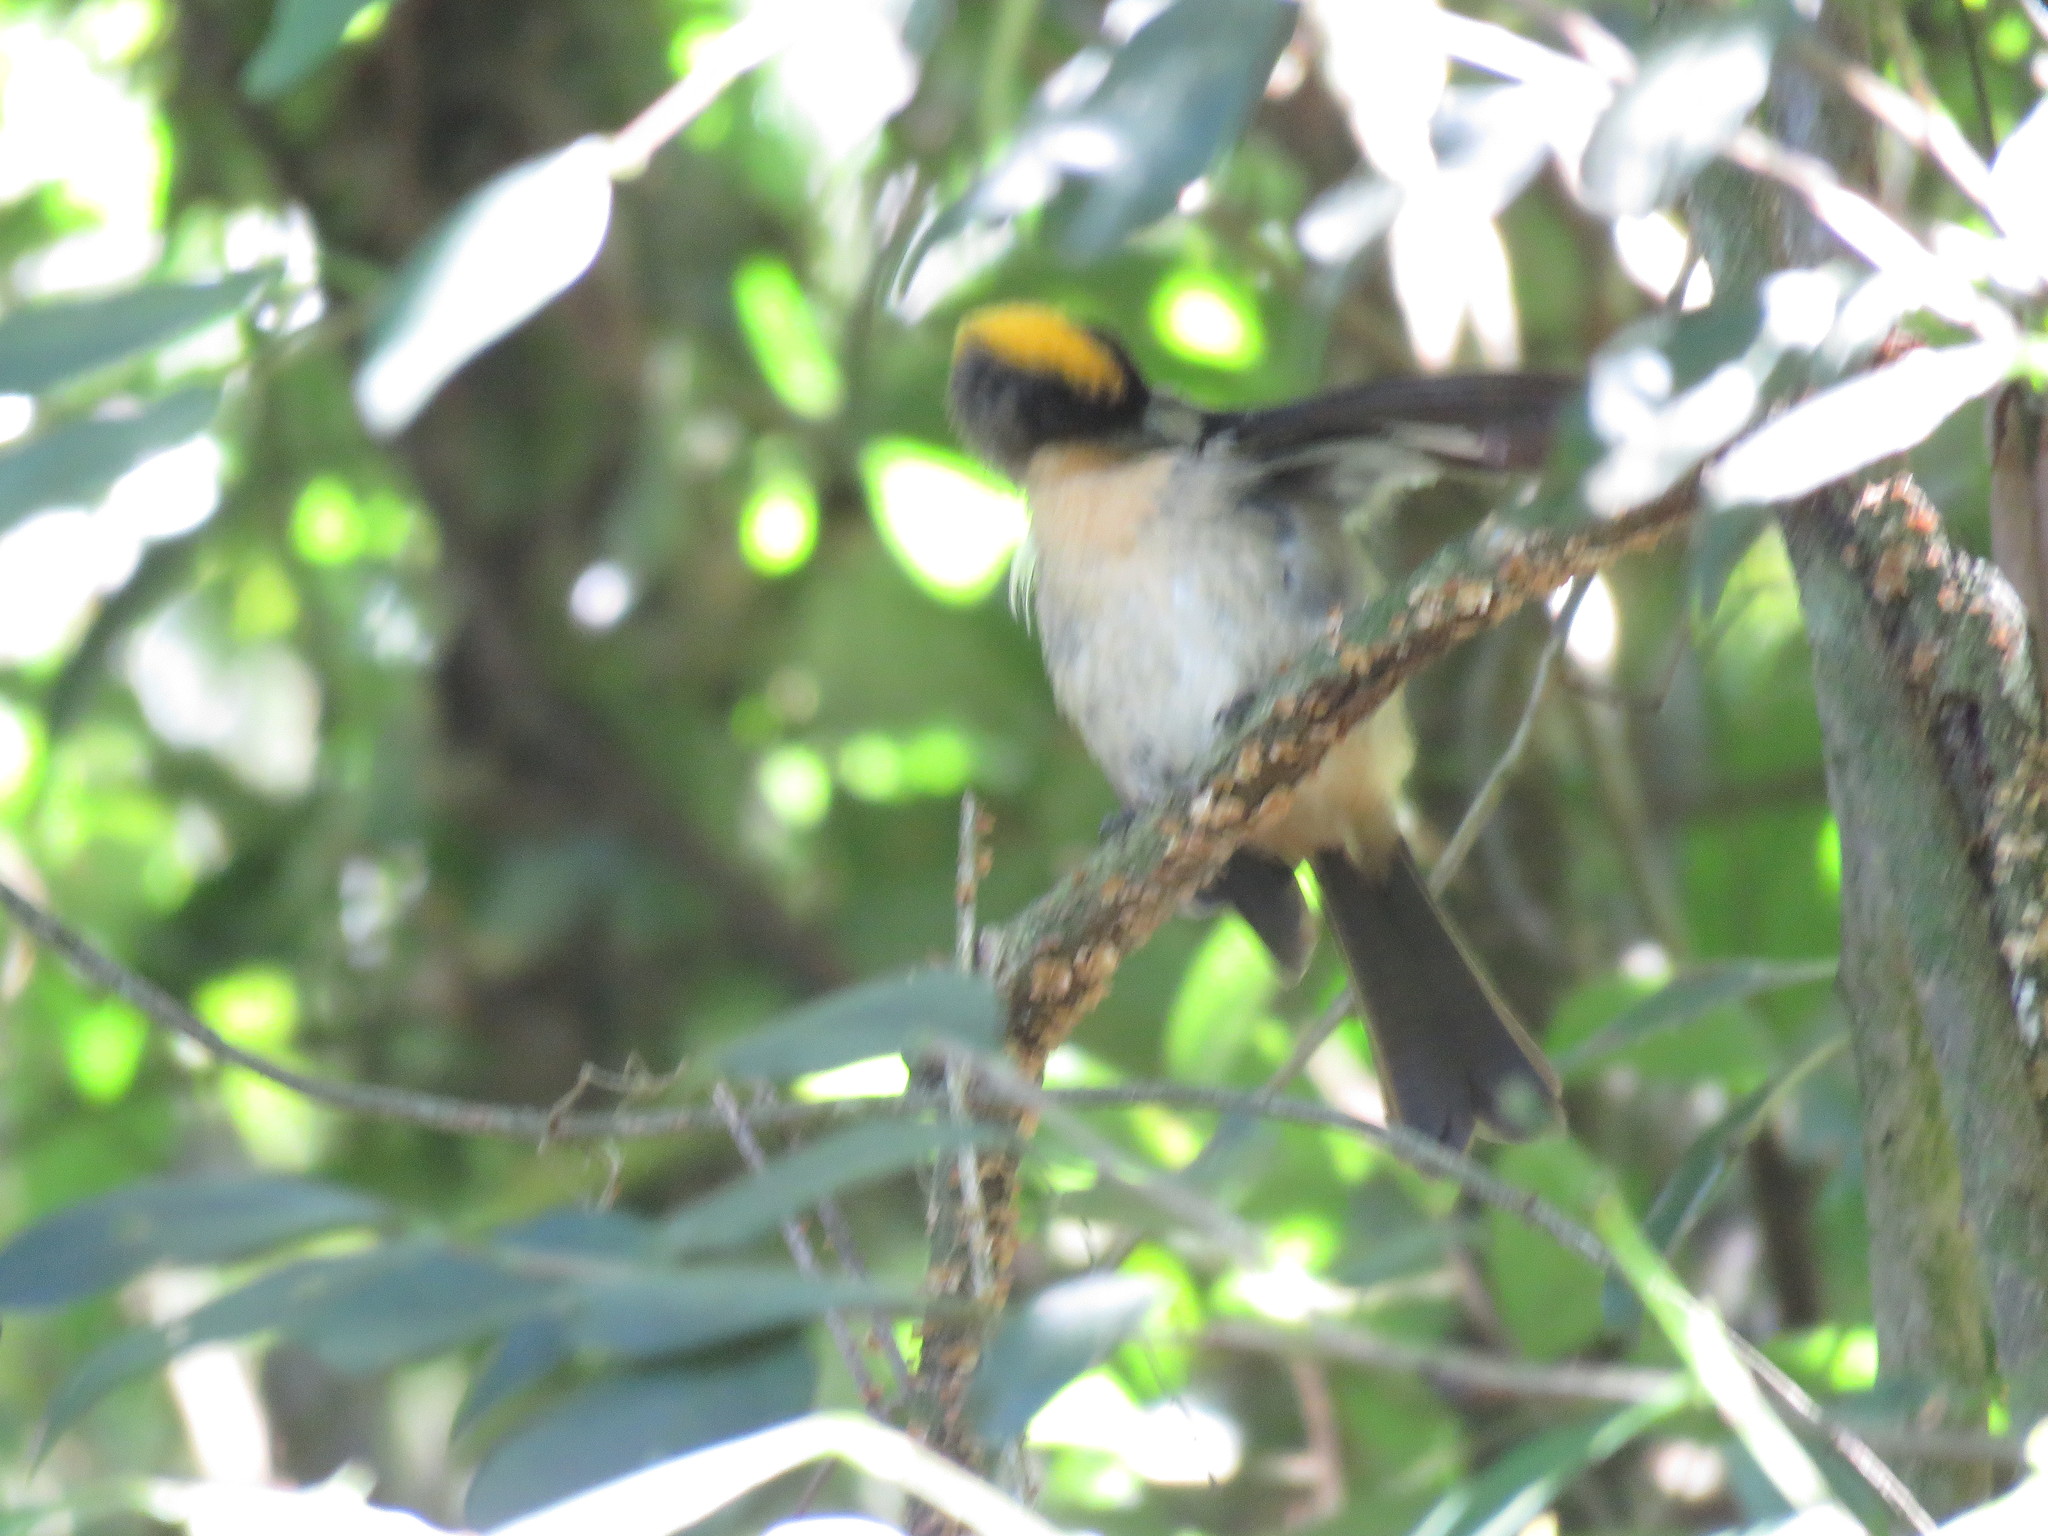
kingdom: Animalia
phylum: Chordata
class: Aves
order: Passeriformes
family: Thraupidae
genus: Trichothraupis
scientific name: Trichothraupis melanops
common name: Black-goggled tanager
